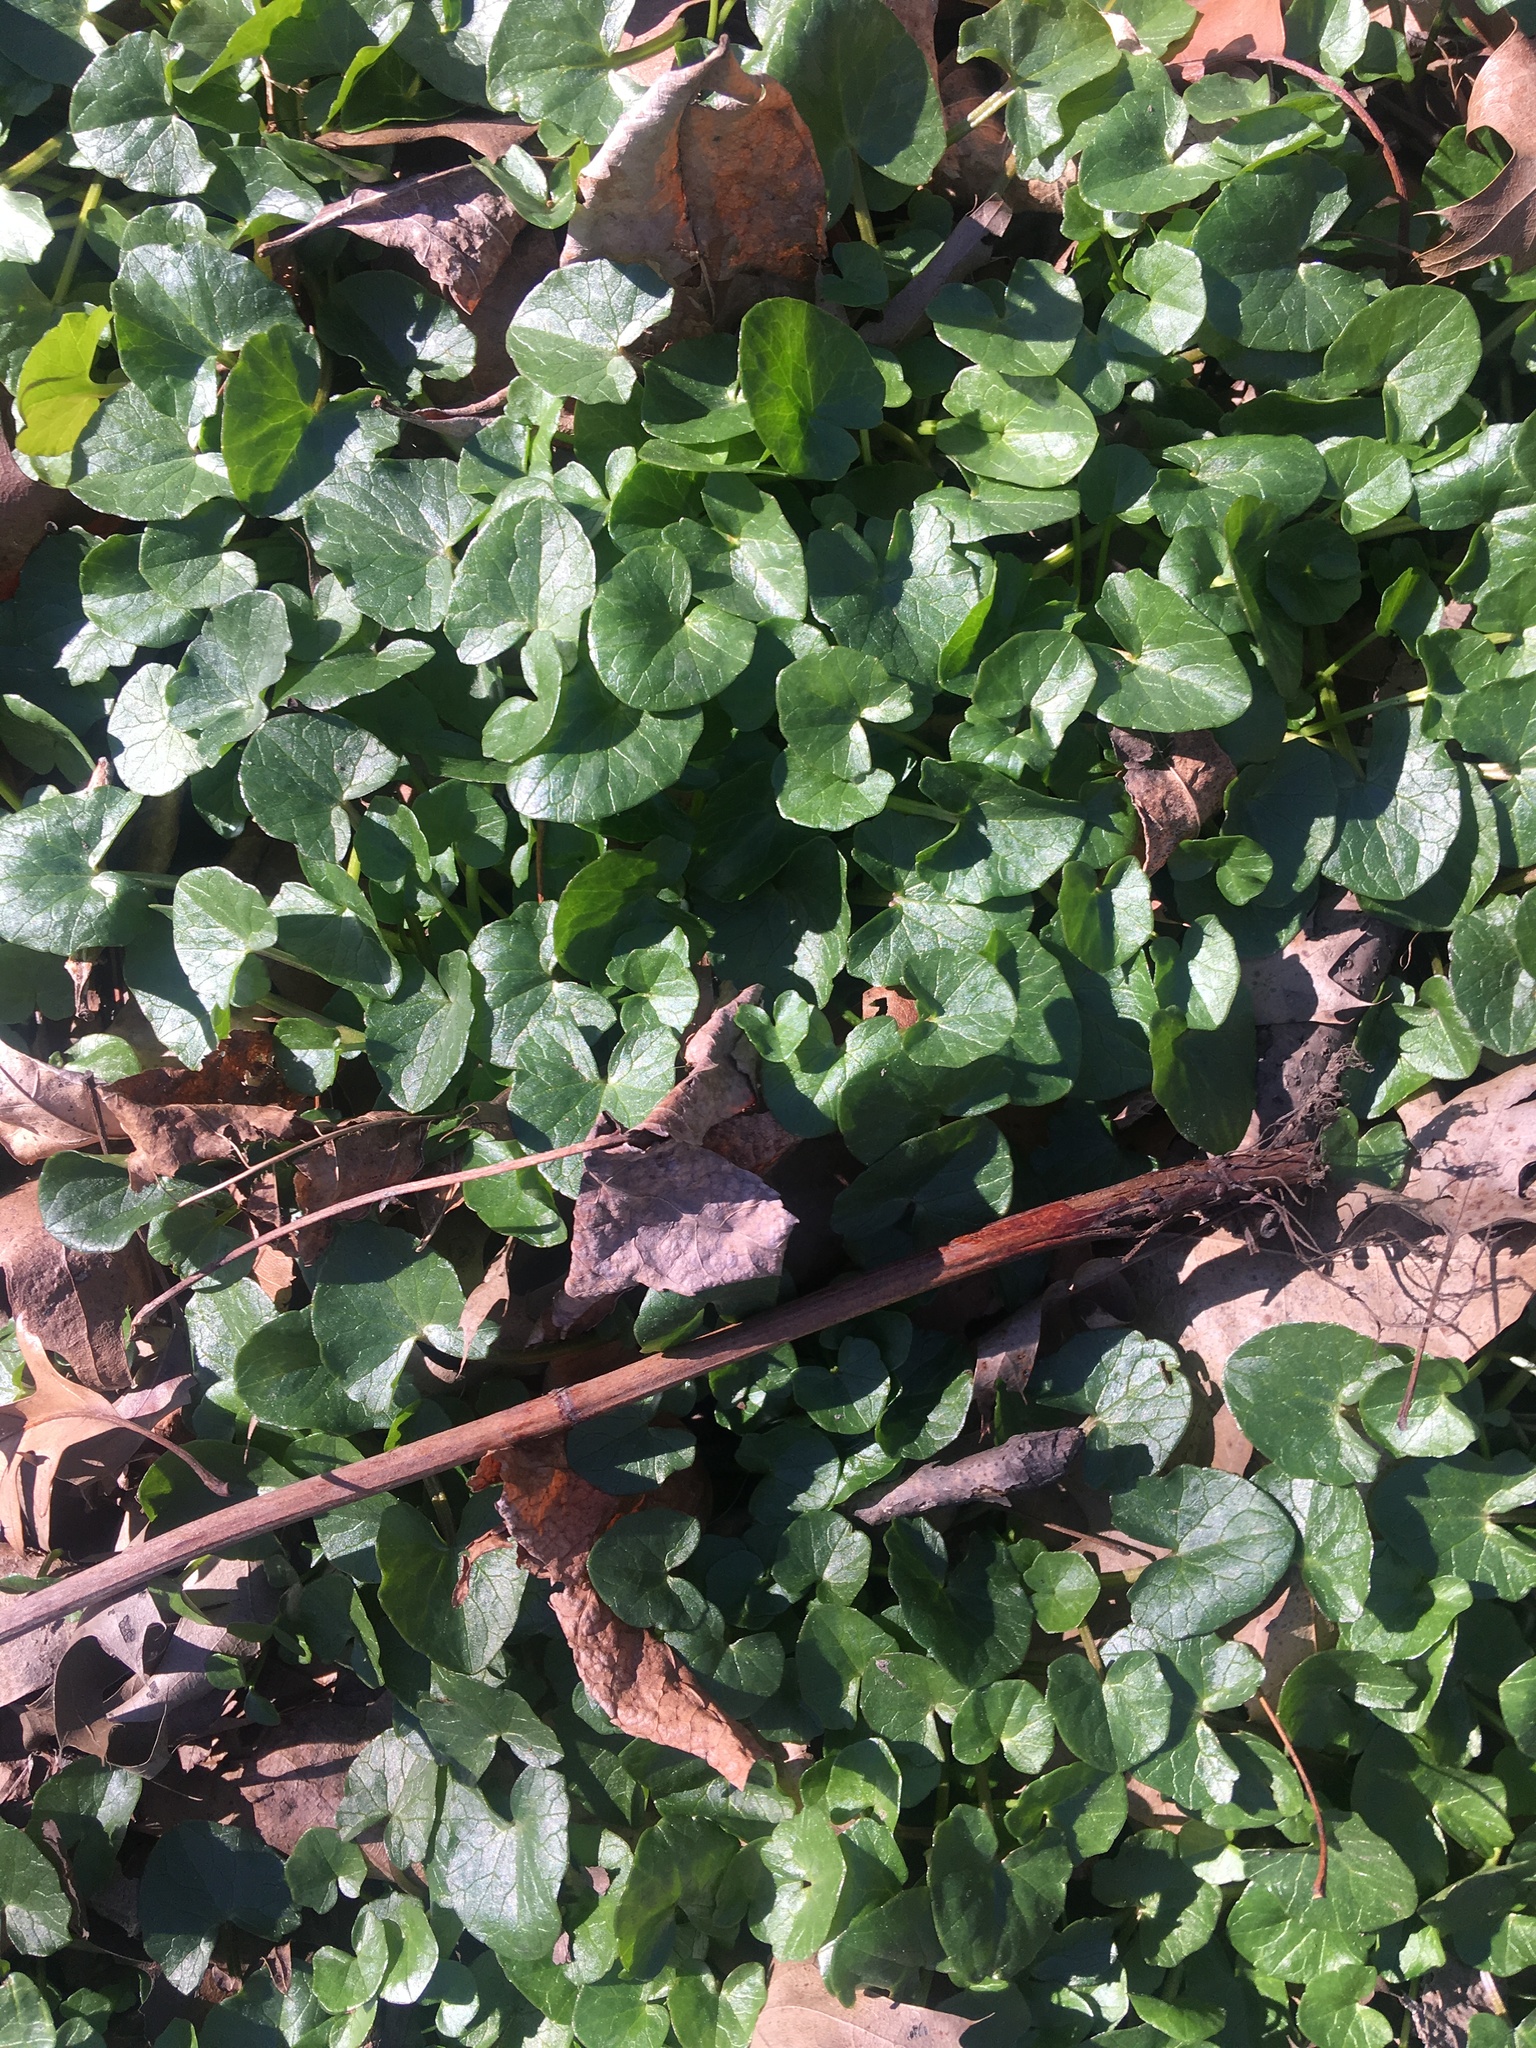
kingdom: Plantae
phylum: Tracheophyta
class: Magnoliopsida
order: Ranunculales
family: Ranunculaceae
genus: Ficaria
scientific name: Ficaria verna
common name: Lesser celandine
